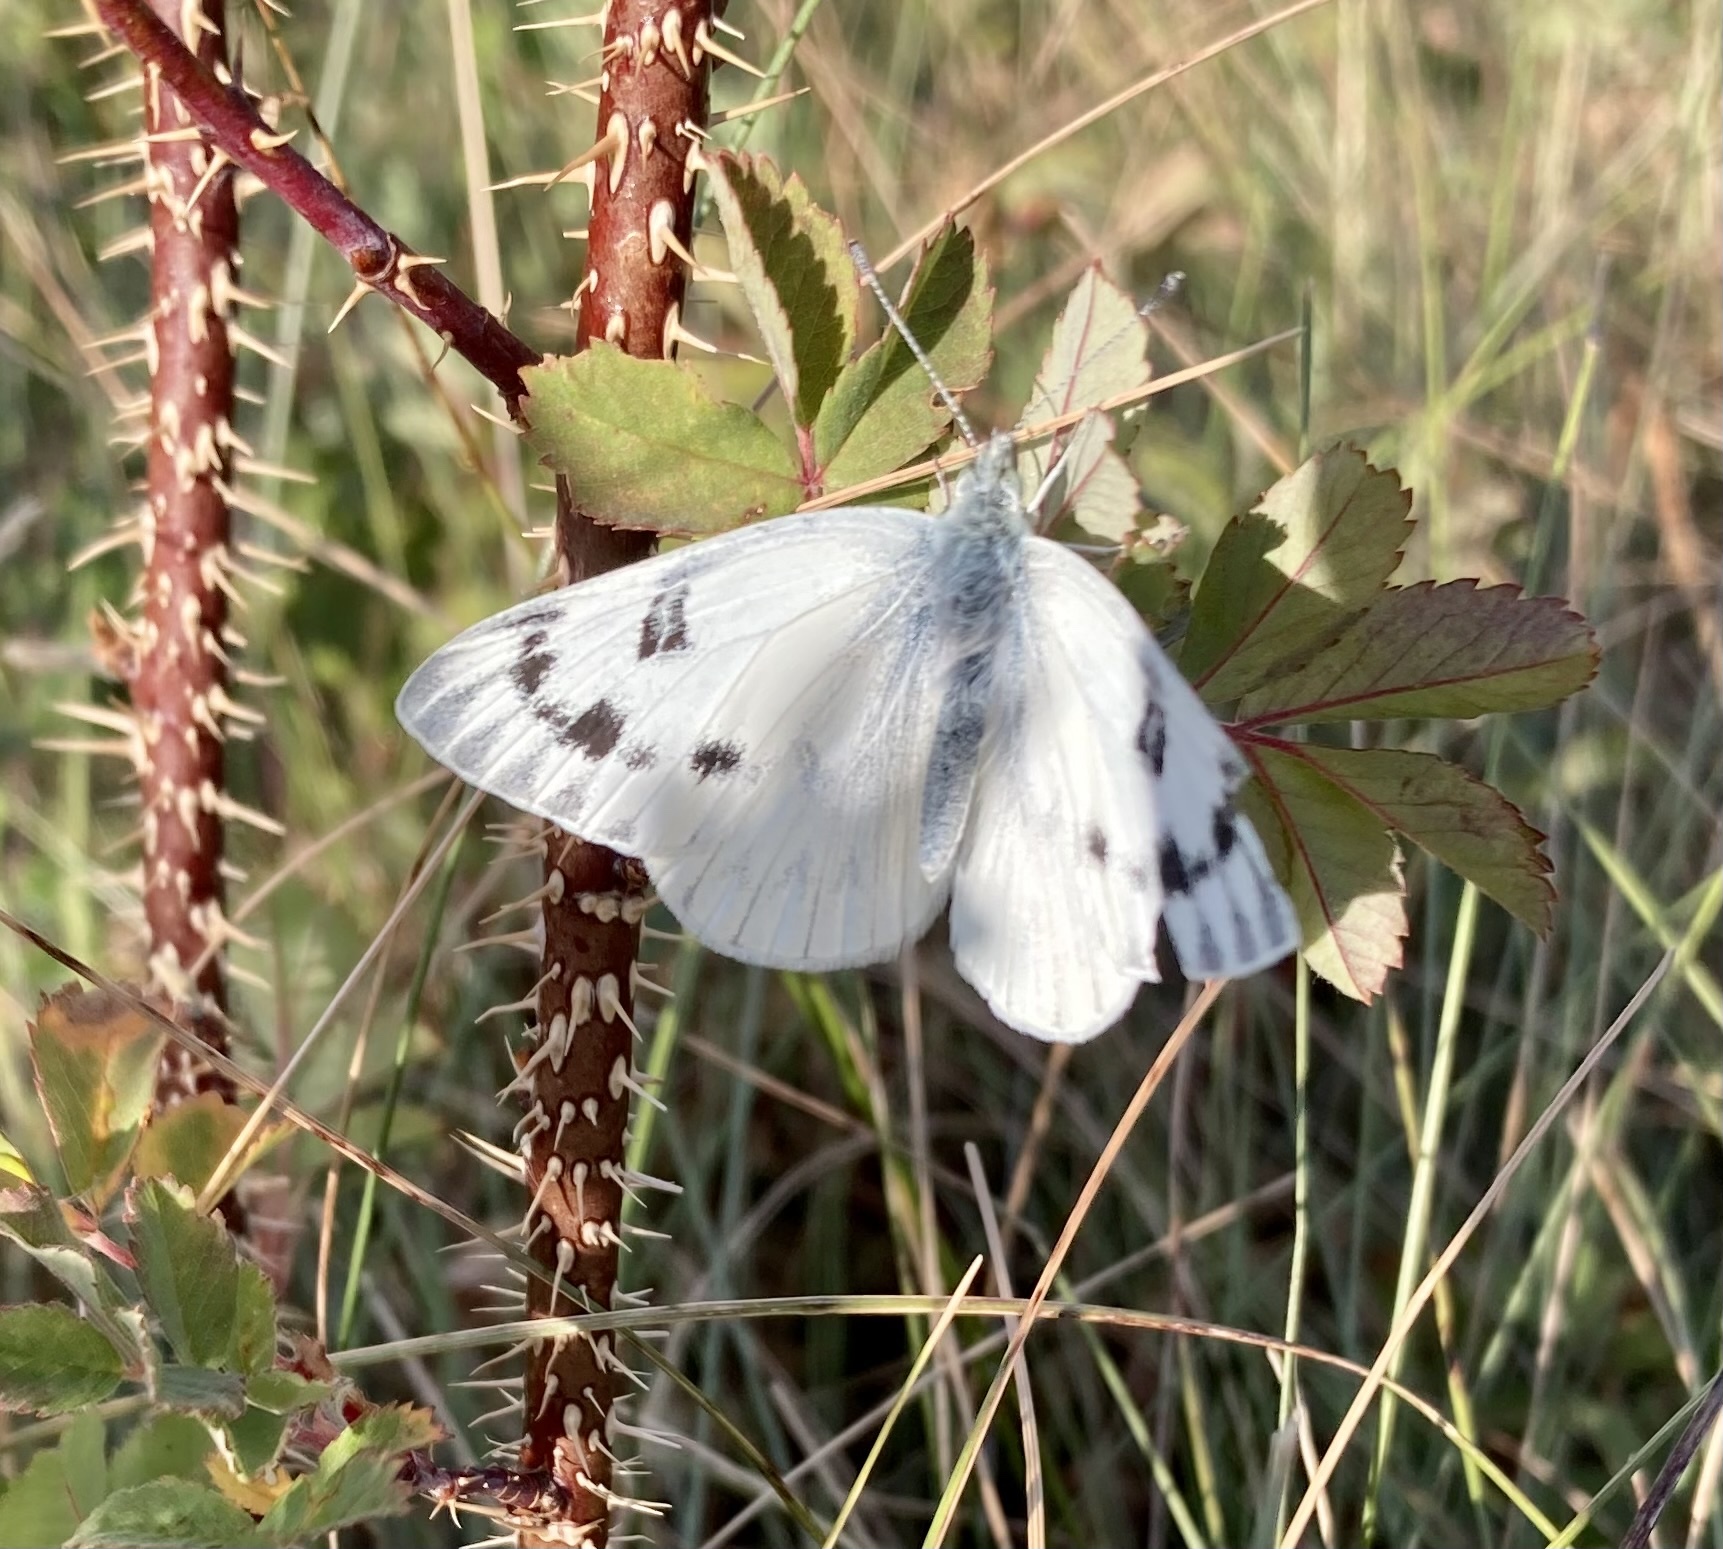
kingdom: Animalia
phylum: Arthropoda
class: Insecta
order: Lepidoptera
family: Pieridae
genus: Pontia
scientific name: Pontia occidentalis
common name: Western white
